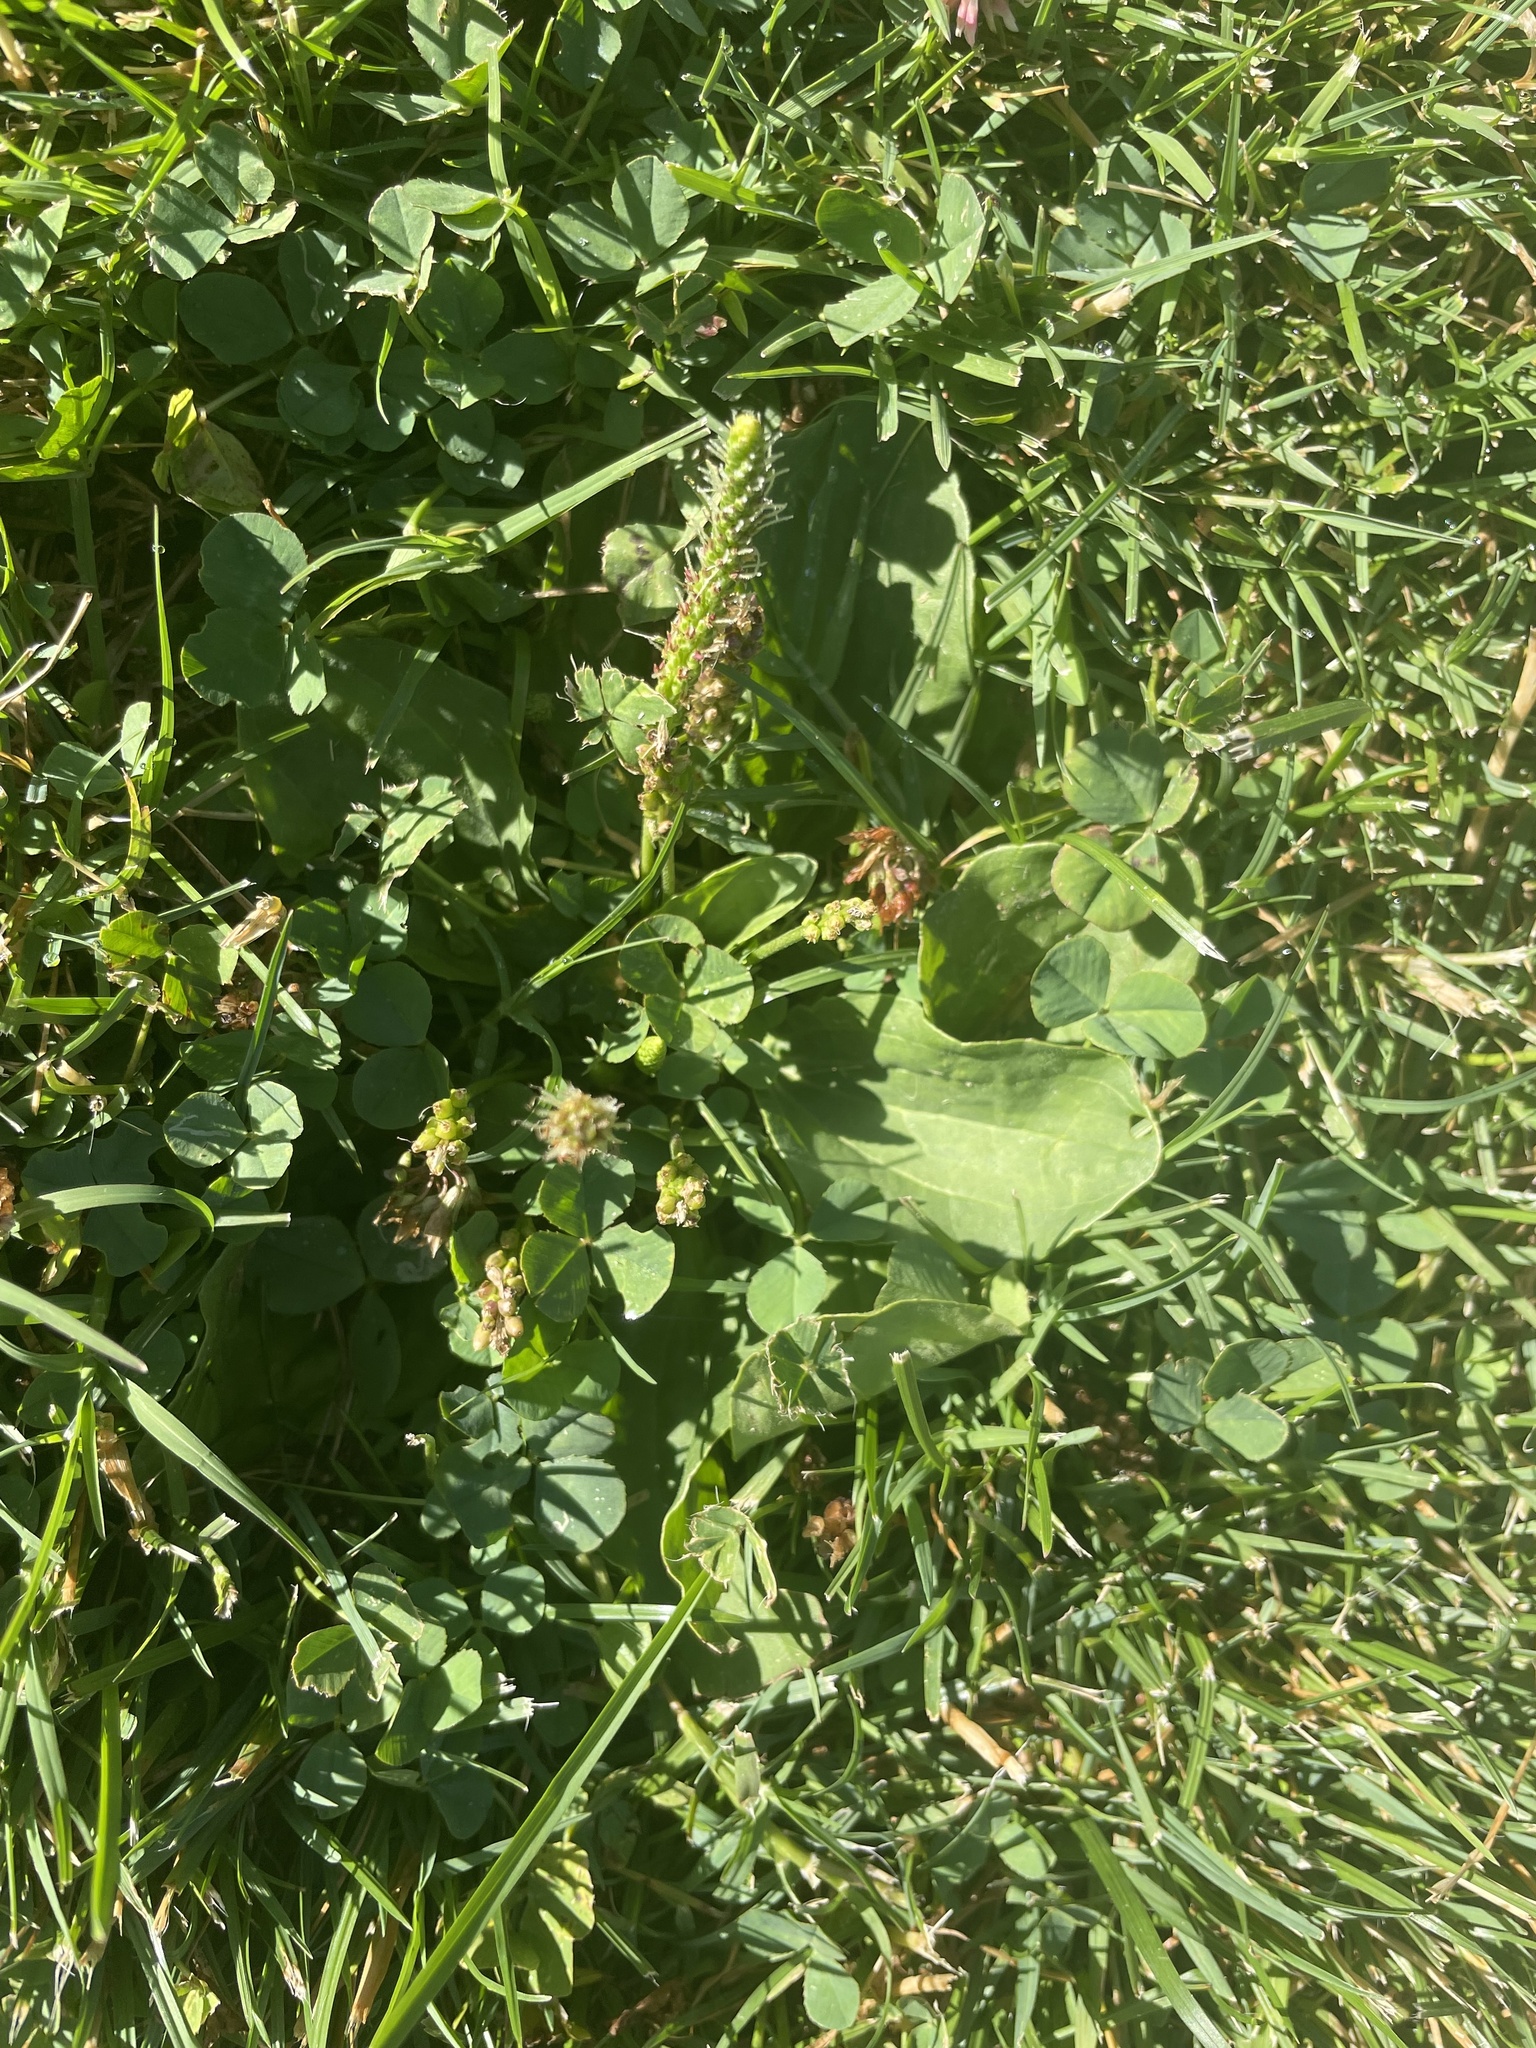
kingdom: Plantae
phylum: Tracheophyta
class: Magnoliopsida
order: Lamiales
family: Plantaginaceae
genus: Plantago
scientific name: Plantago major
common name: Common plantain
